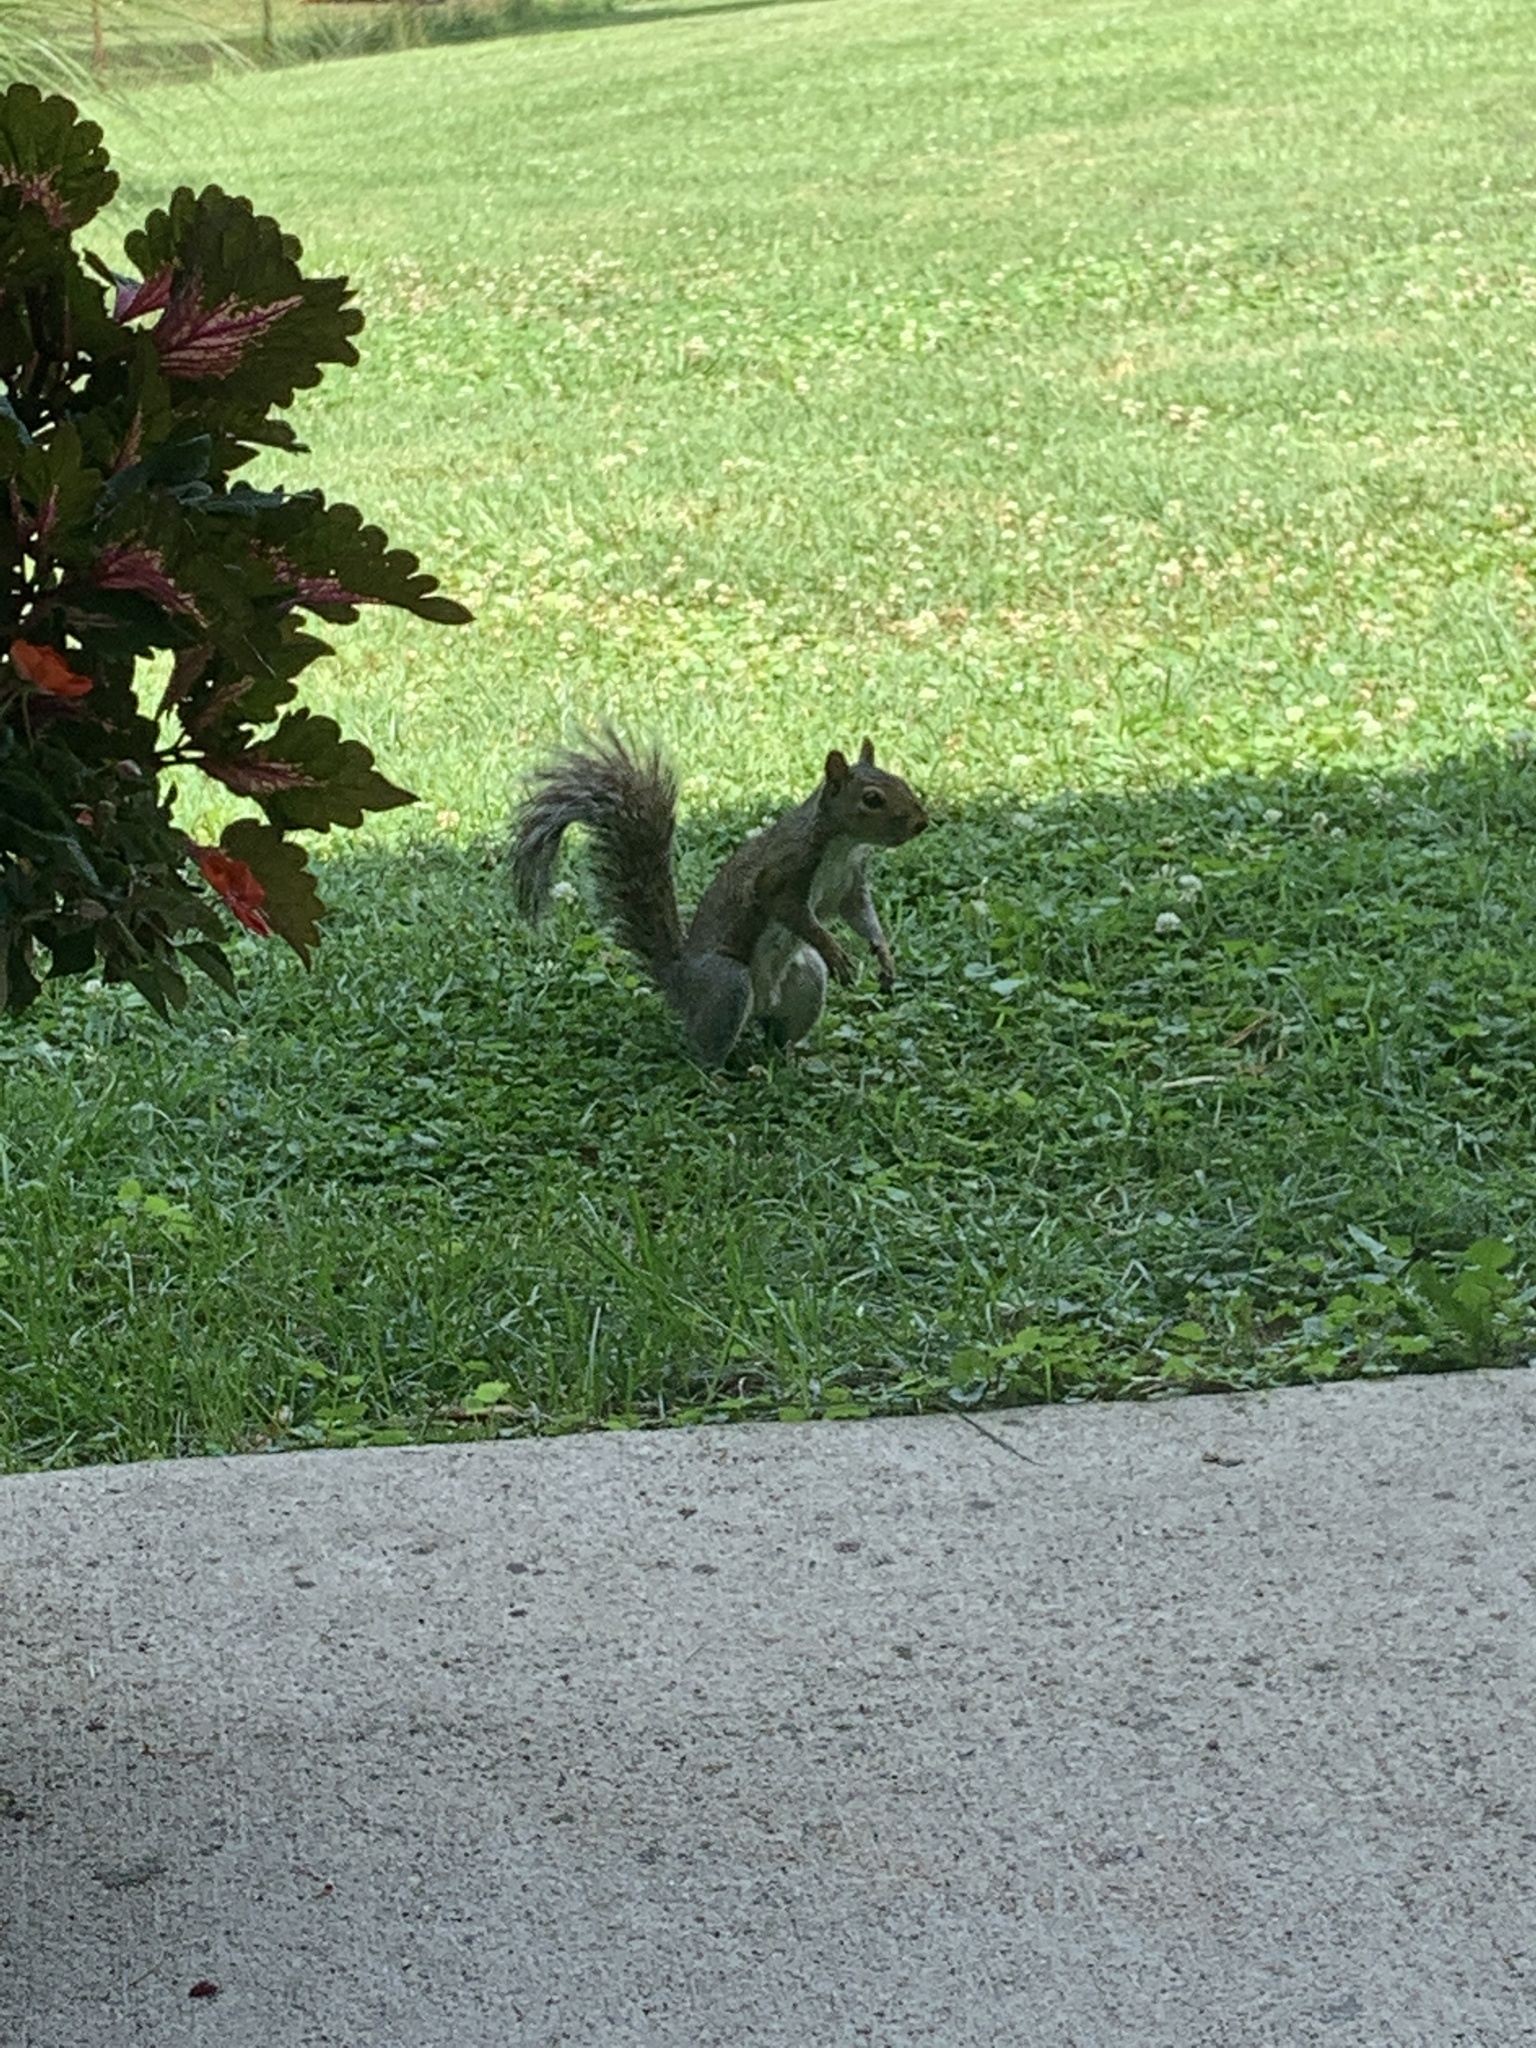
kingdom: Animalia
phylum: Chordata
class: Mammalia
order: Rodentia
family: Sciuridae
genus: Sciurus
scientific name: Sciurus carolinensis
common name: Eastern gray squirrel
